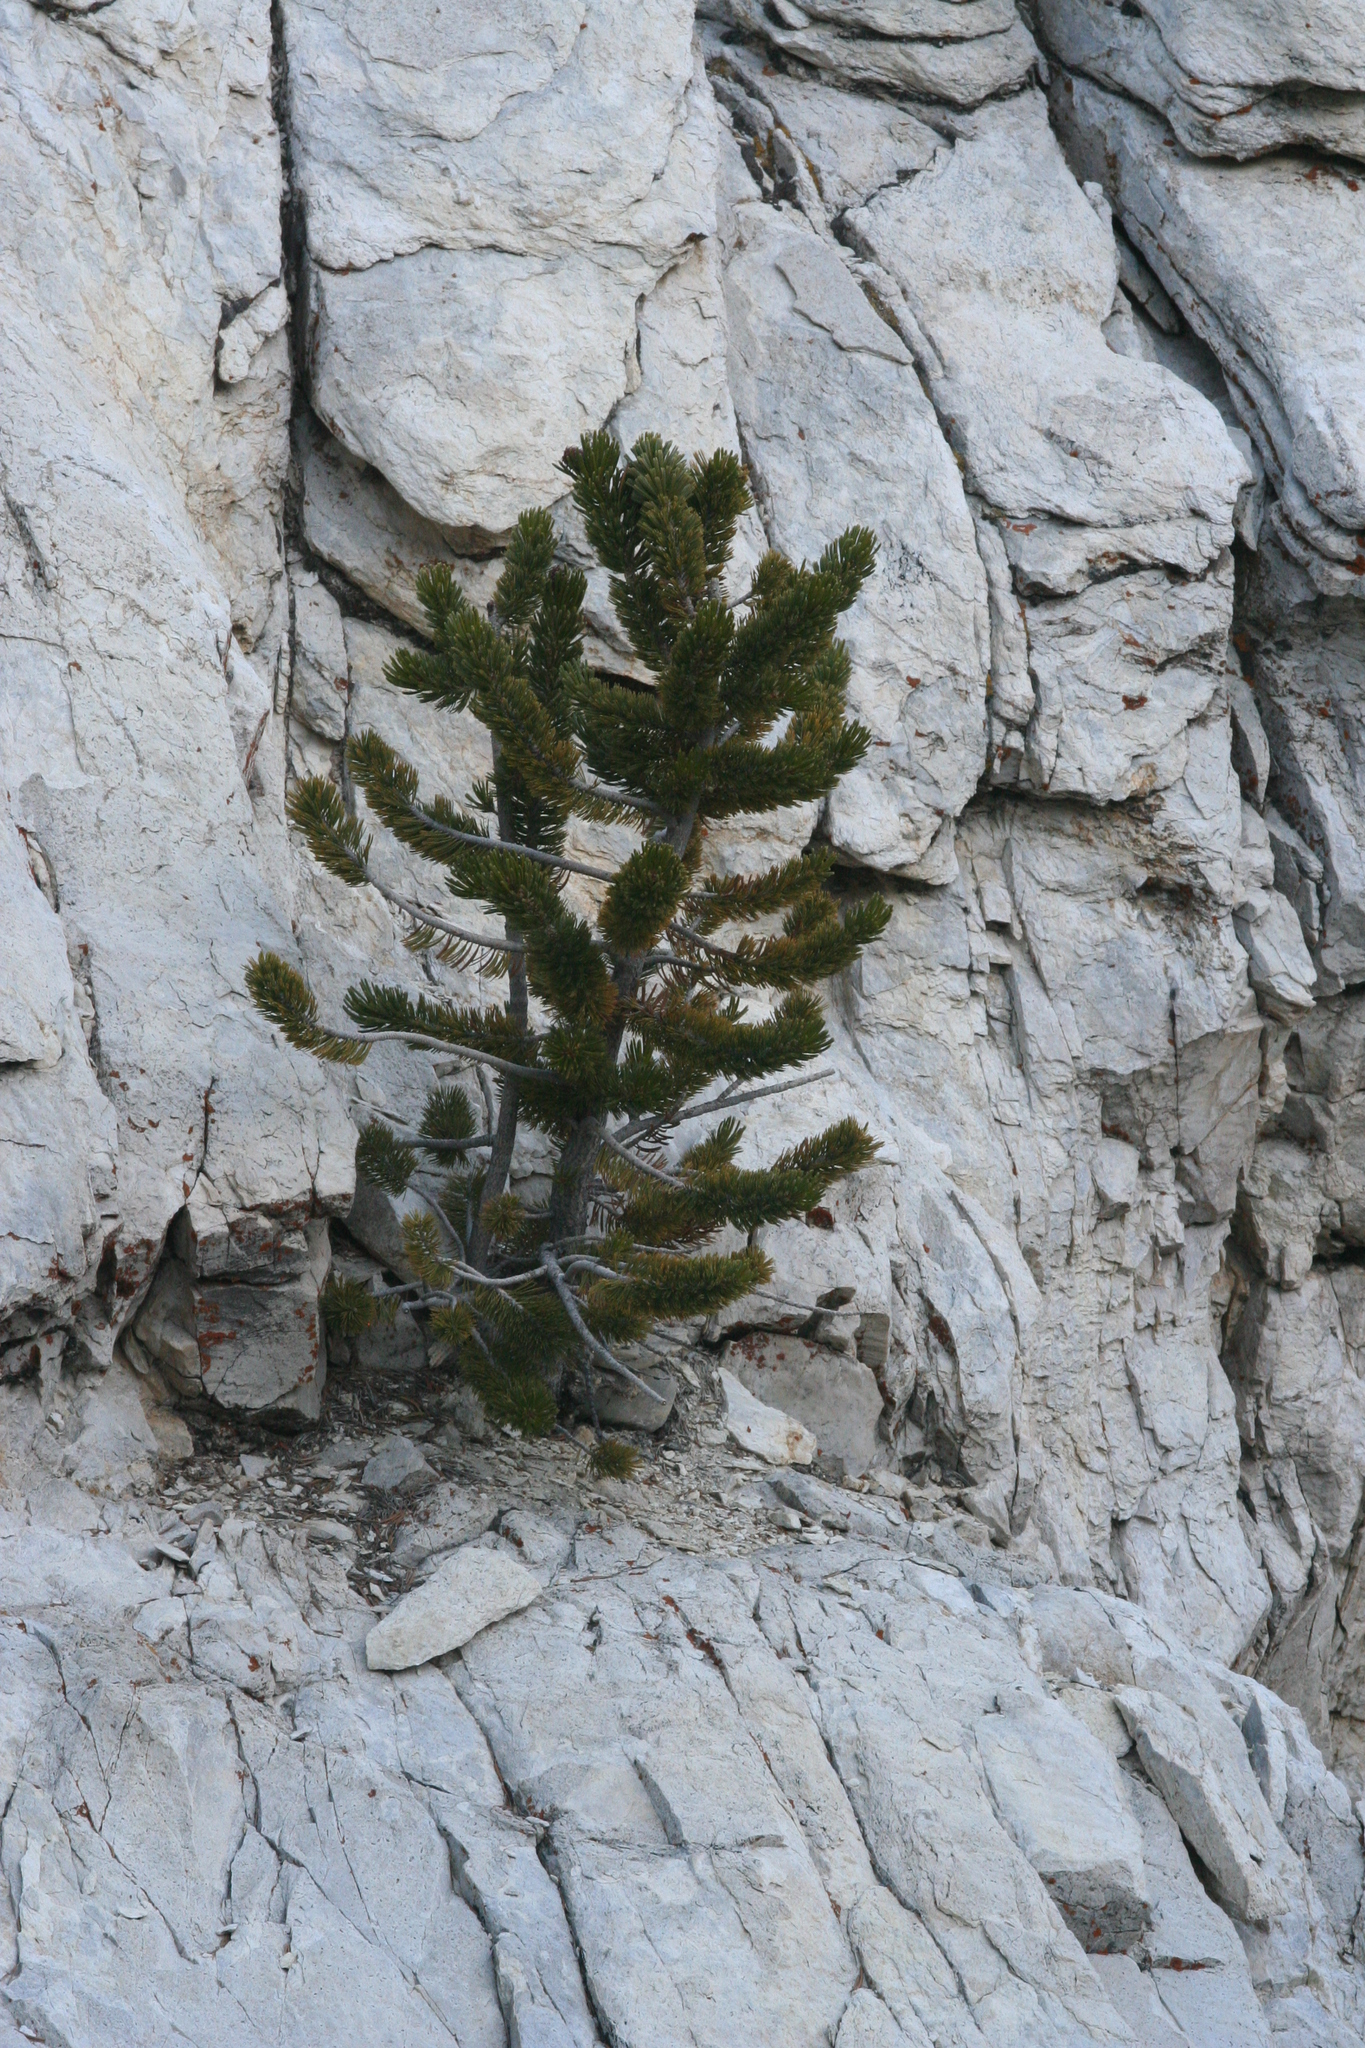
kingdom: Plantae
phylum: Tracheophyta
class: Pinopsida
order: Pinales
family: Pinaceae
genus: Pinus
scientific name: Pinus longaeva
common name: Intermountain bristlecone pine
